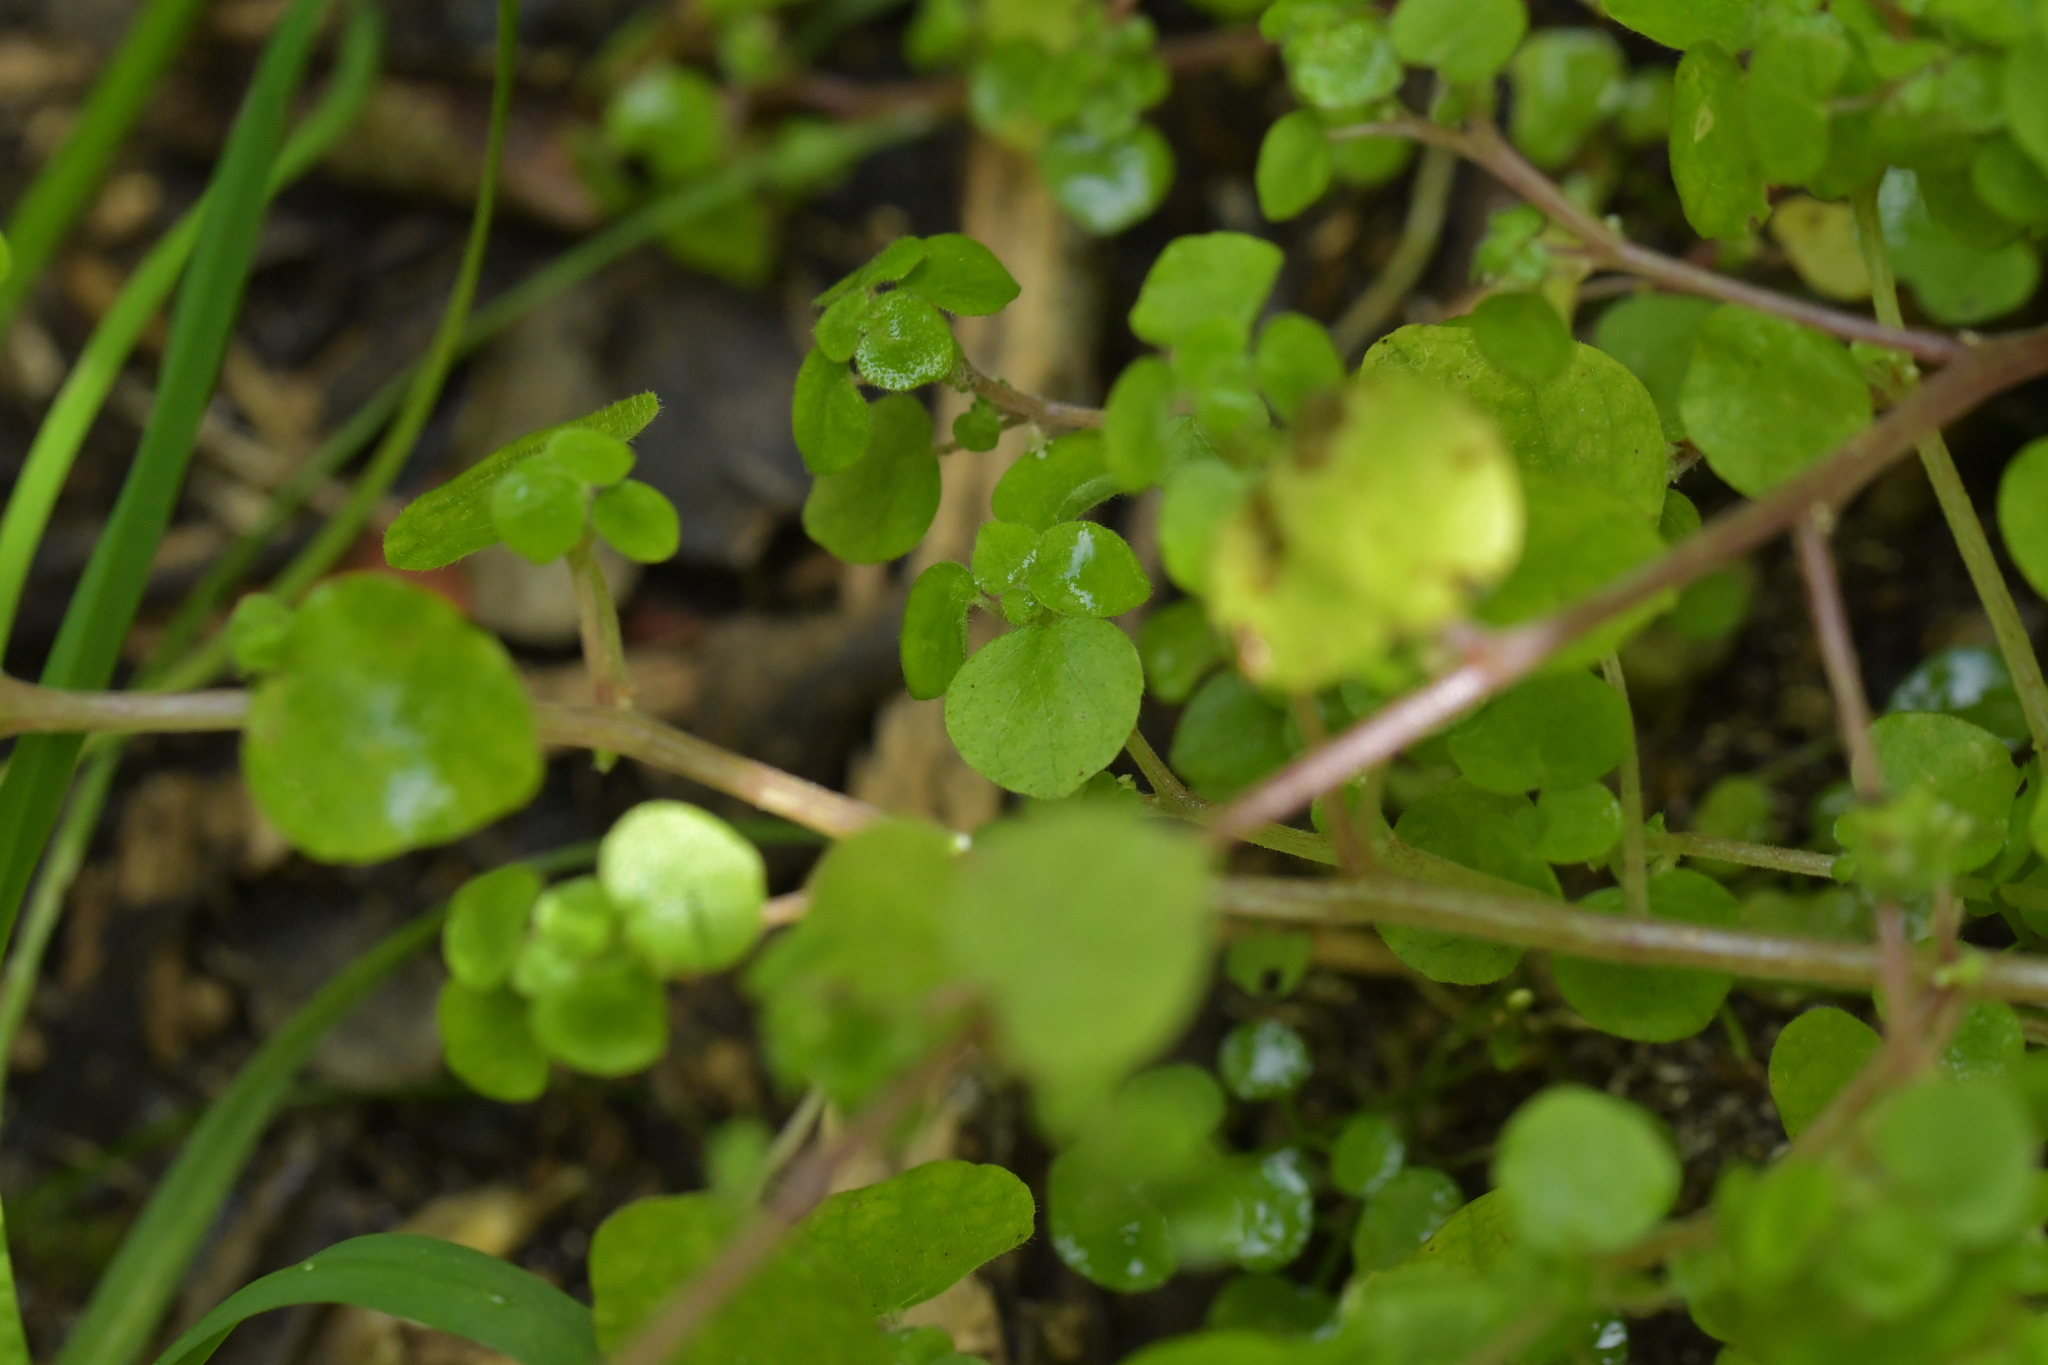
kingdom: Plantae
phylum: Tracheophyta
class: Magnoliopsida
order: Rosales
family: Urticaceae
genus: Parietaria
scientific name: Parietaria debilis
